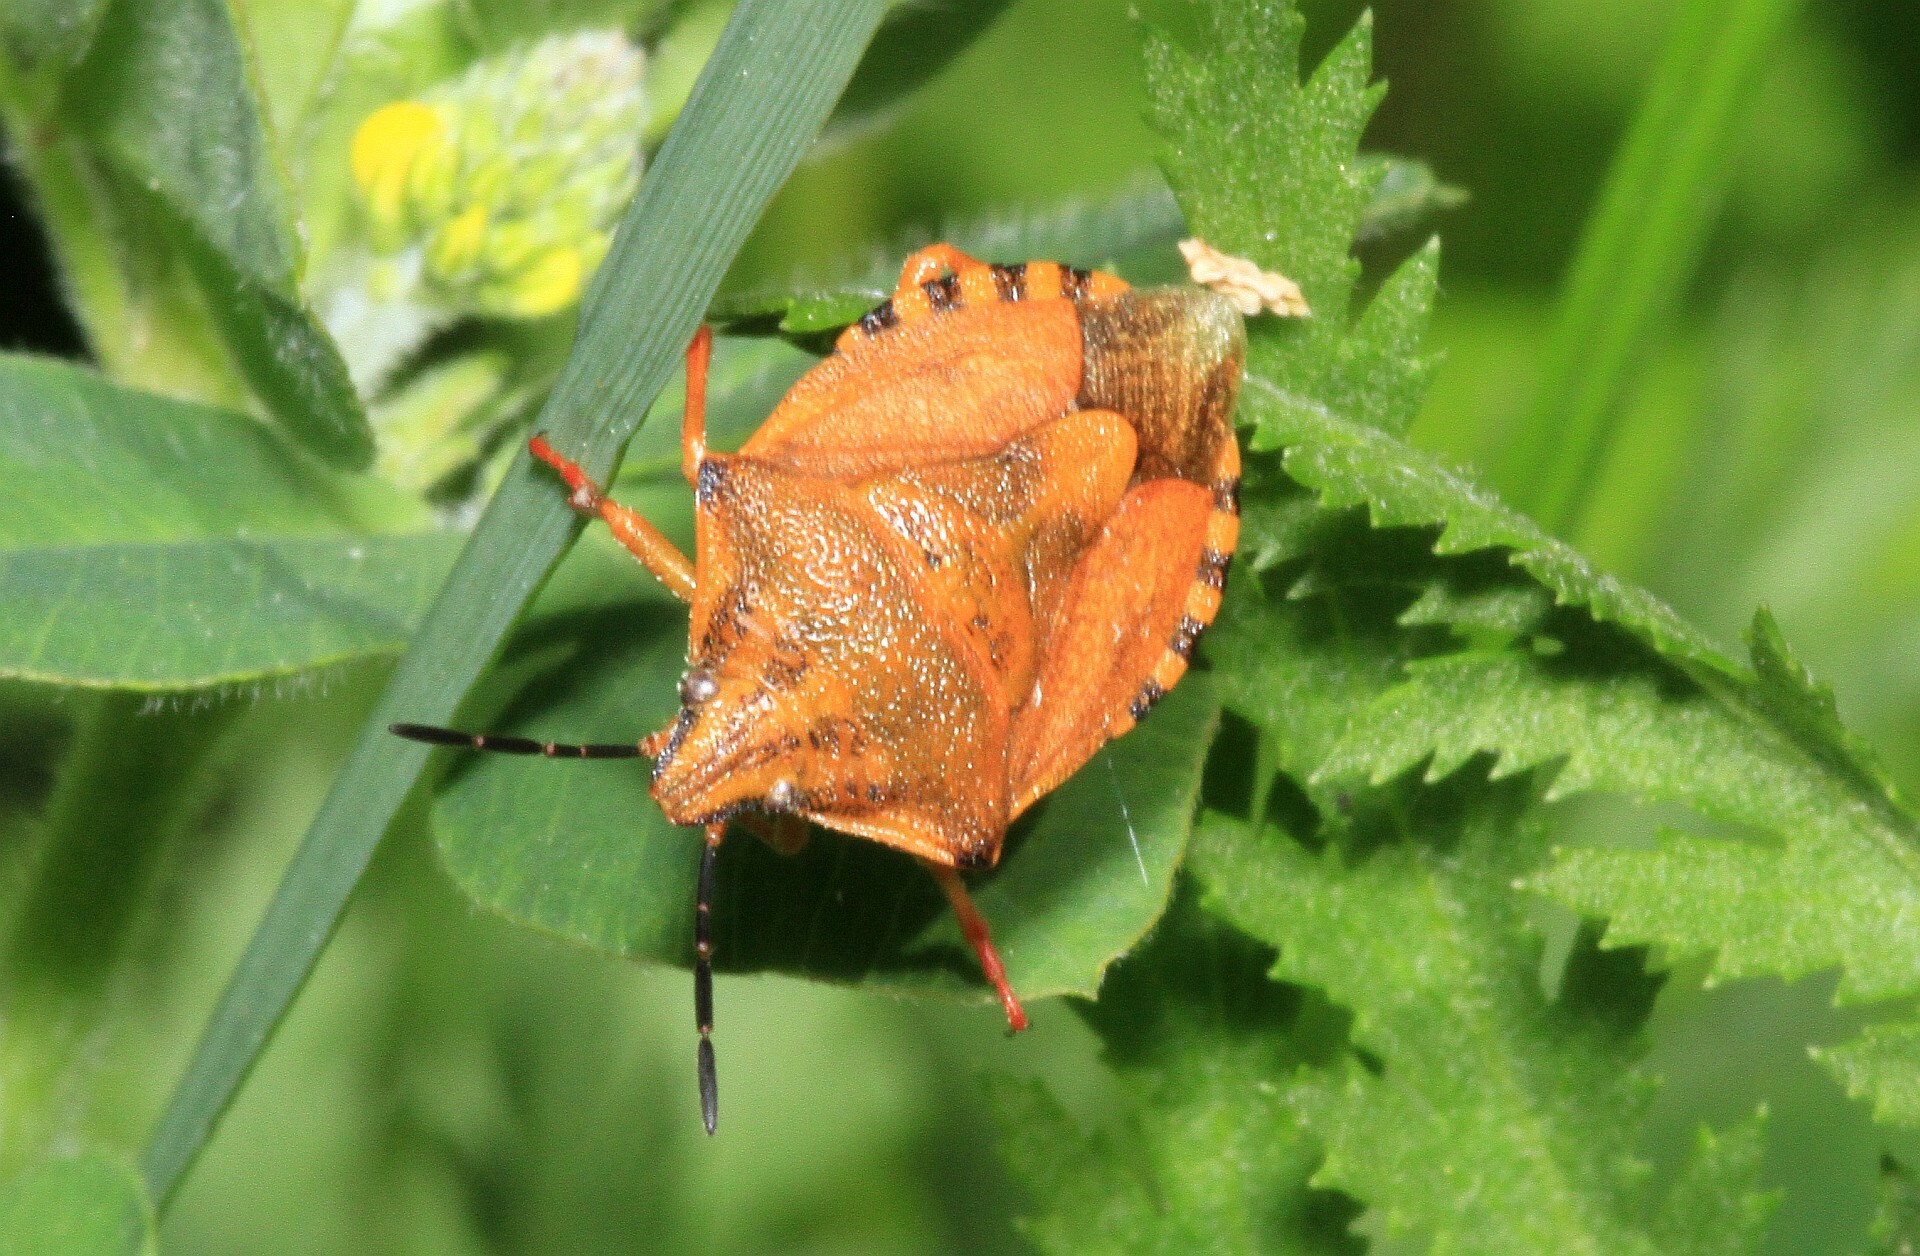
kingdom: Animalia
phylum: Arthropoda
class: Insecta
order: Hemiptera
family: Pentatomidae
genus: Carpocoris
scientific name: Carpocoris purpureipennis
